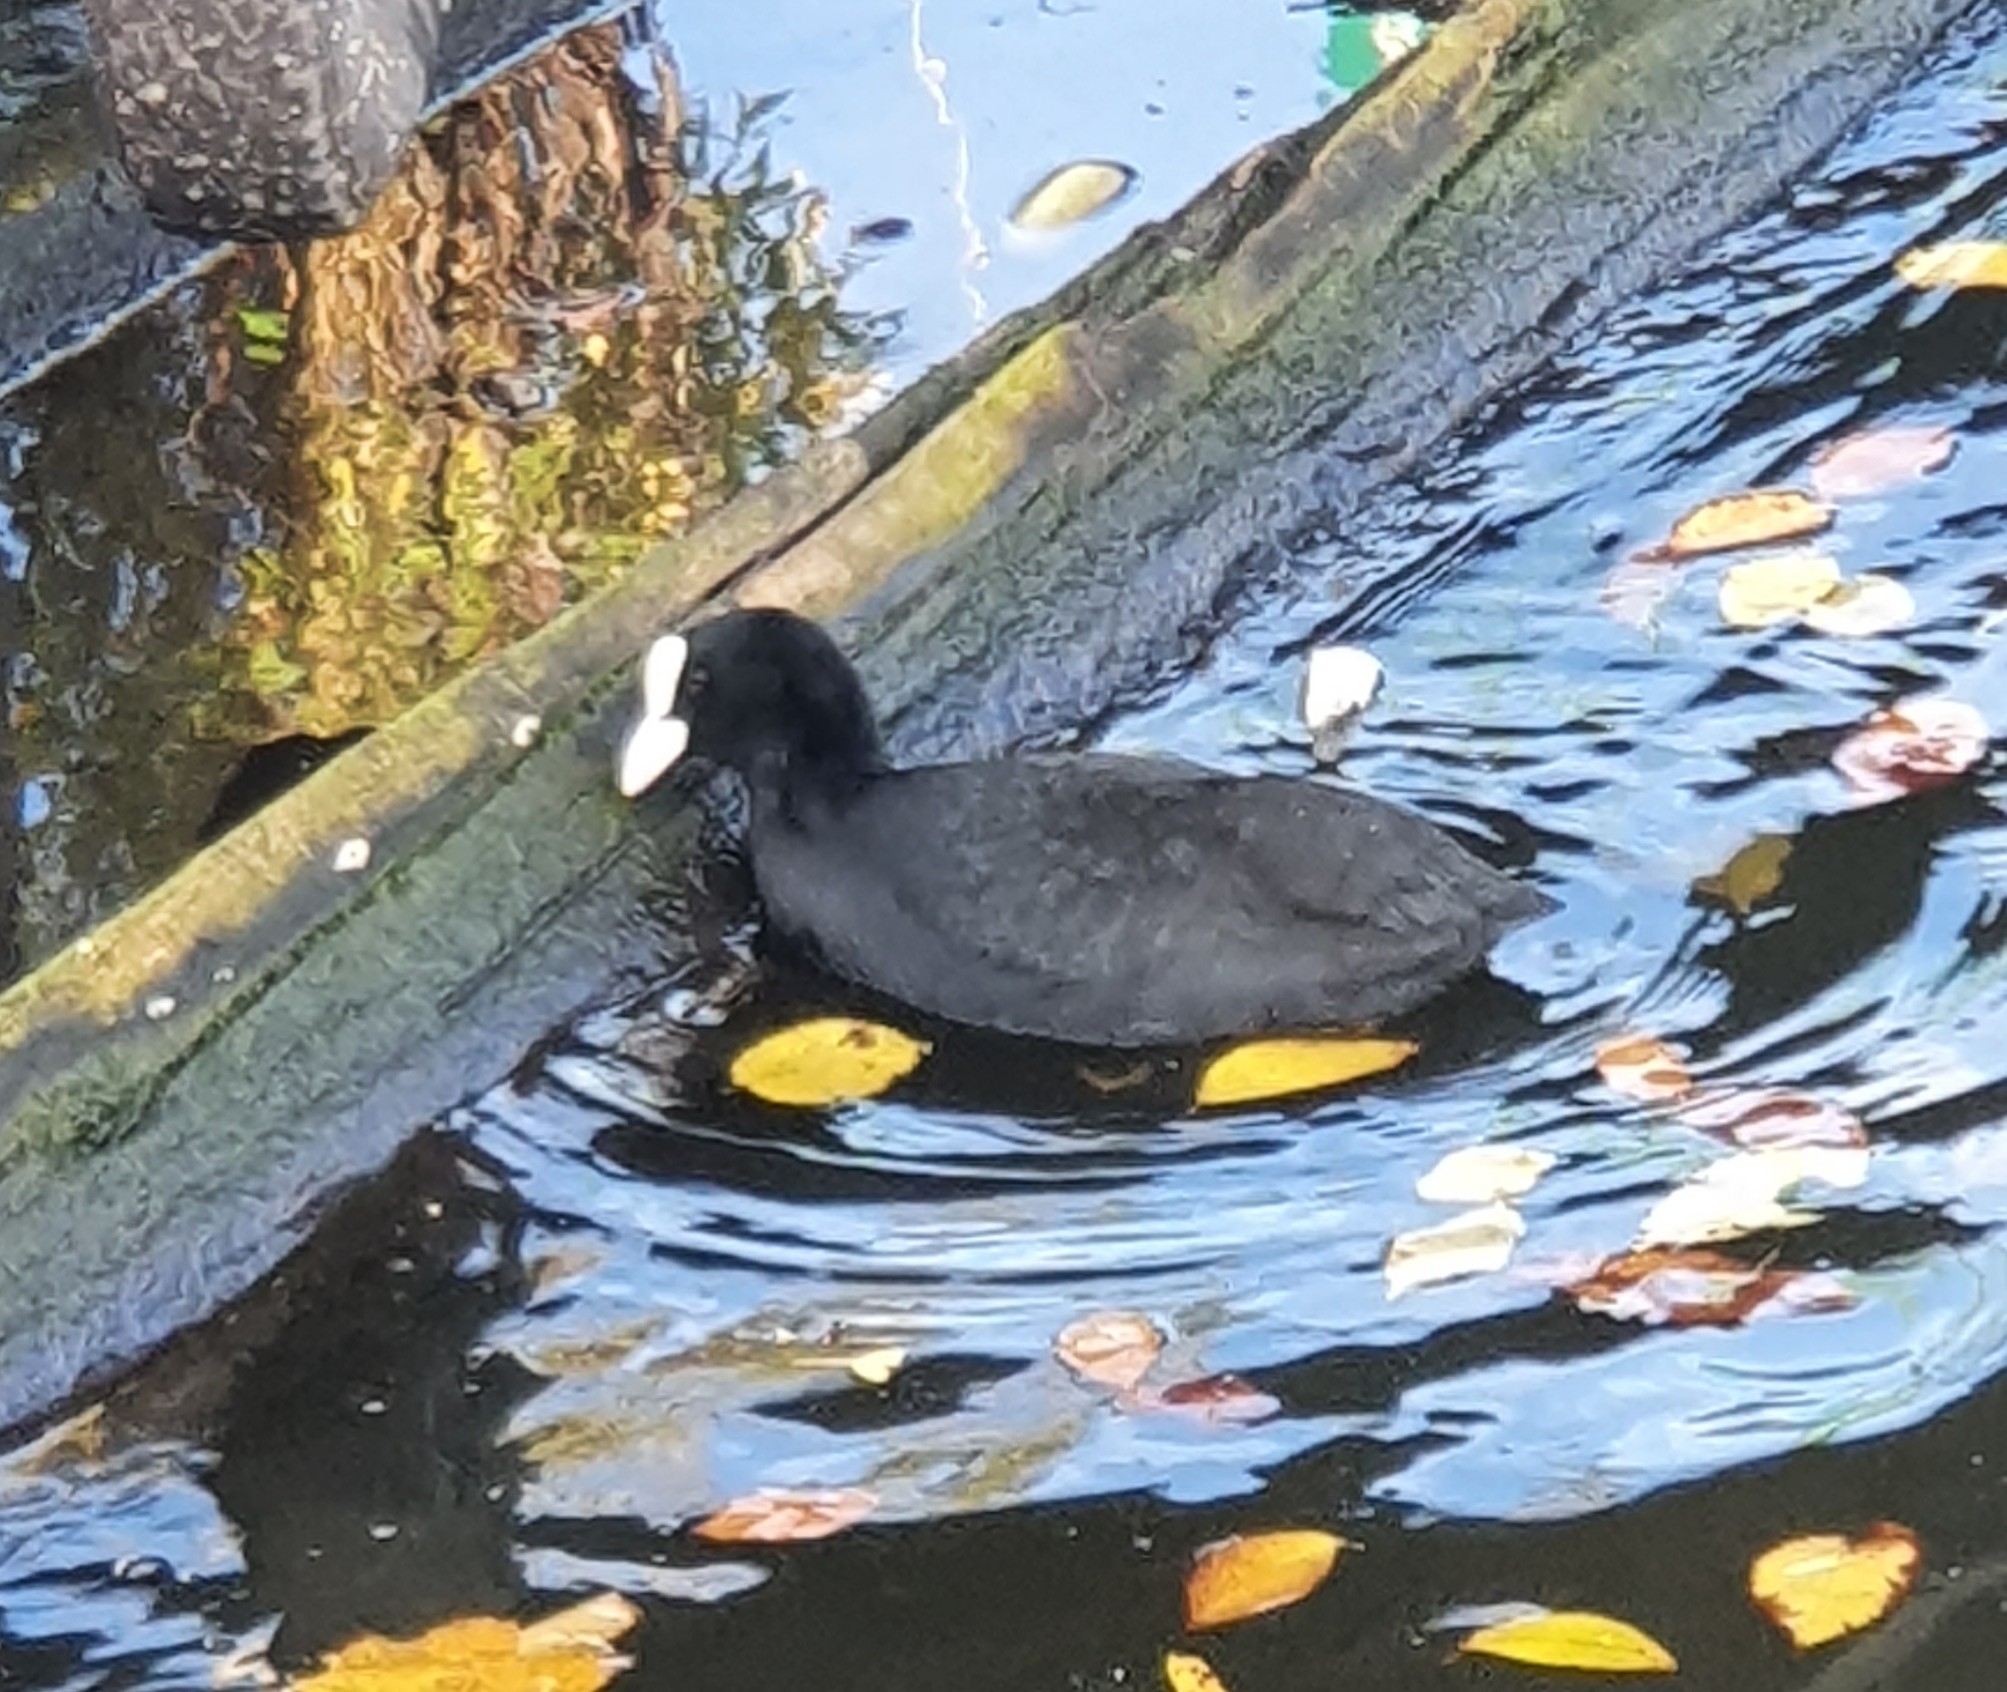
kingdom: Animalia
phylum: Chordata
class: Aves
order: Gruiformes
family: Rallidae
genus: Fulica
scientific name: Fulica atra
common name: Eurasian coot
